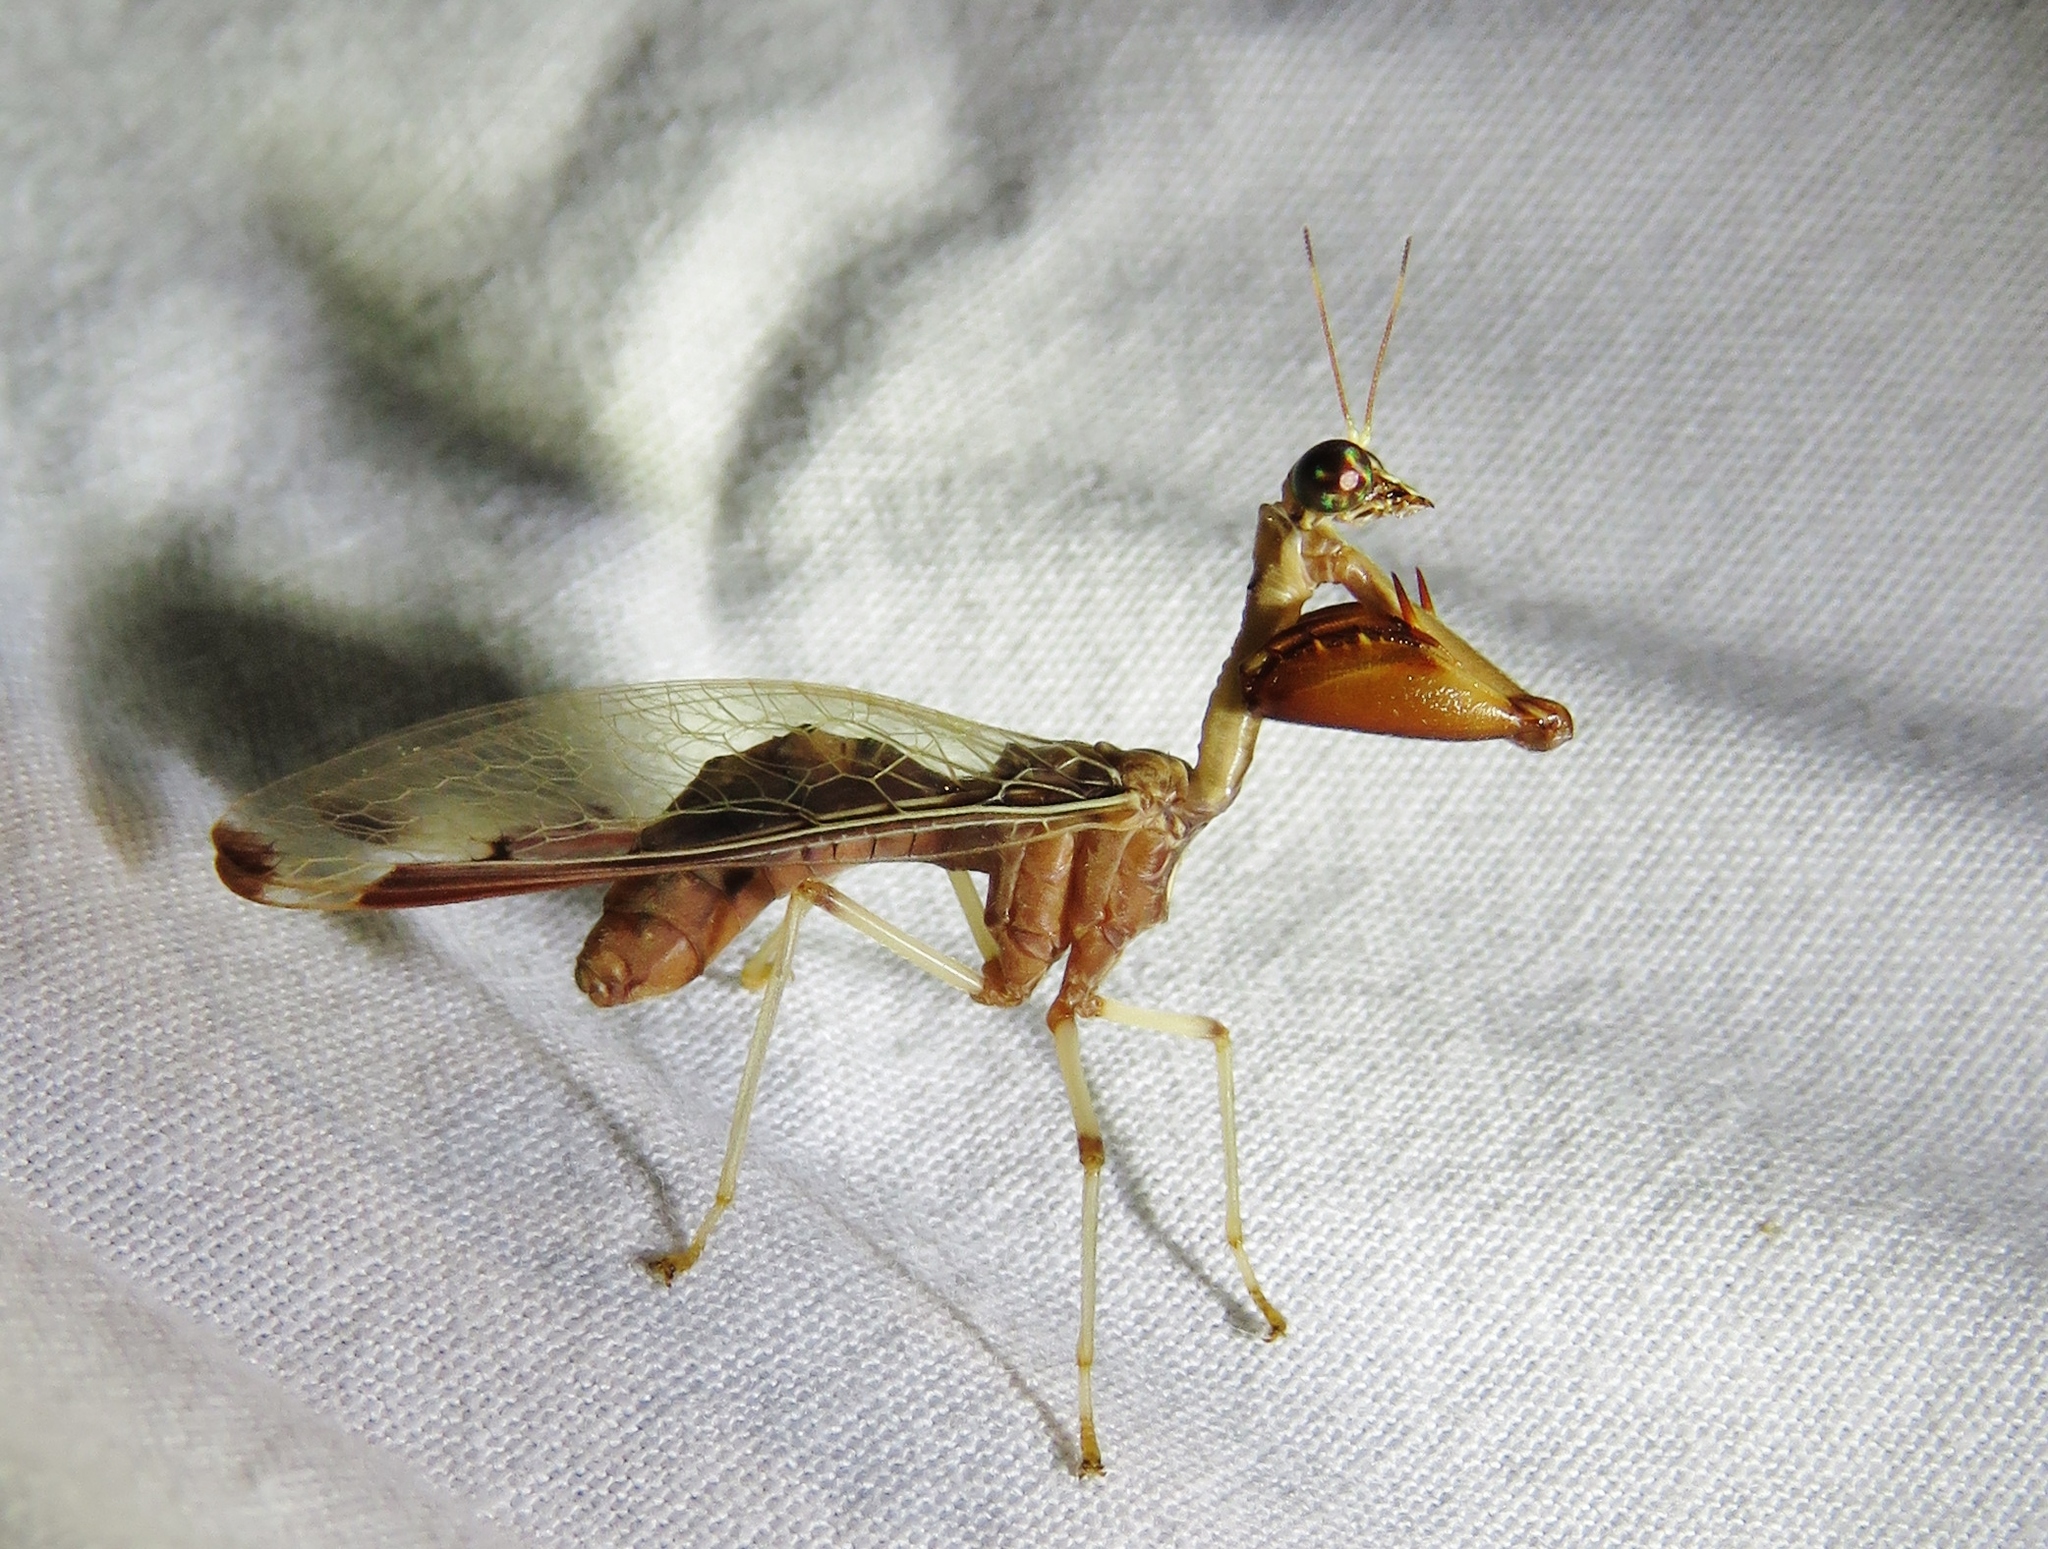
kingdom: Animalia
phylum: Arthropoda
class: Insecta
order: Neuroptera
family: Mantispidae
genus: Dicromantispa
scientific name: Dicromantispa interrupta
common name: Four-spotted mantidfly
